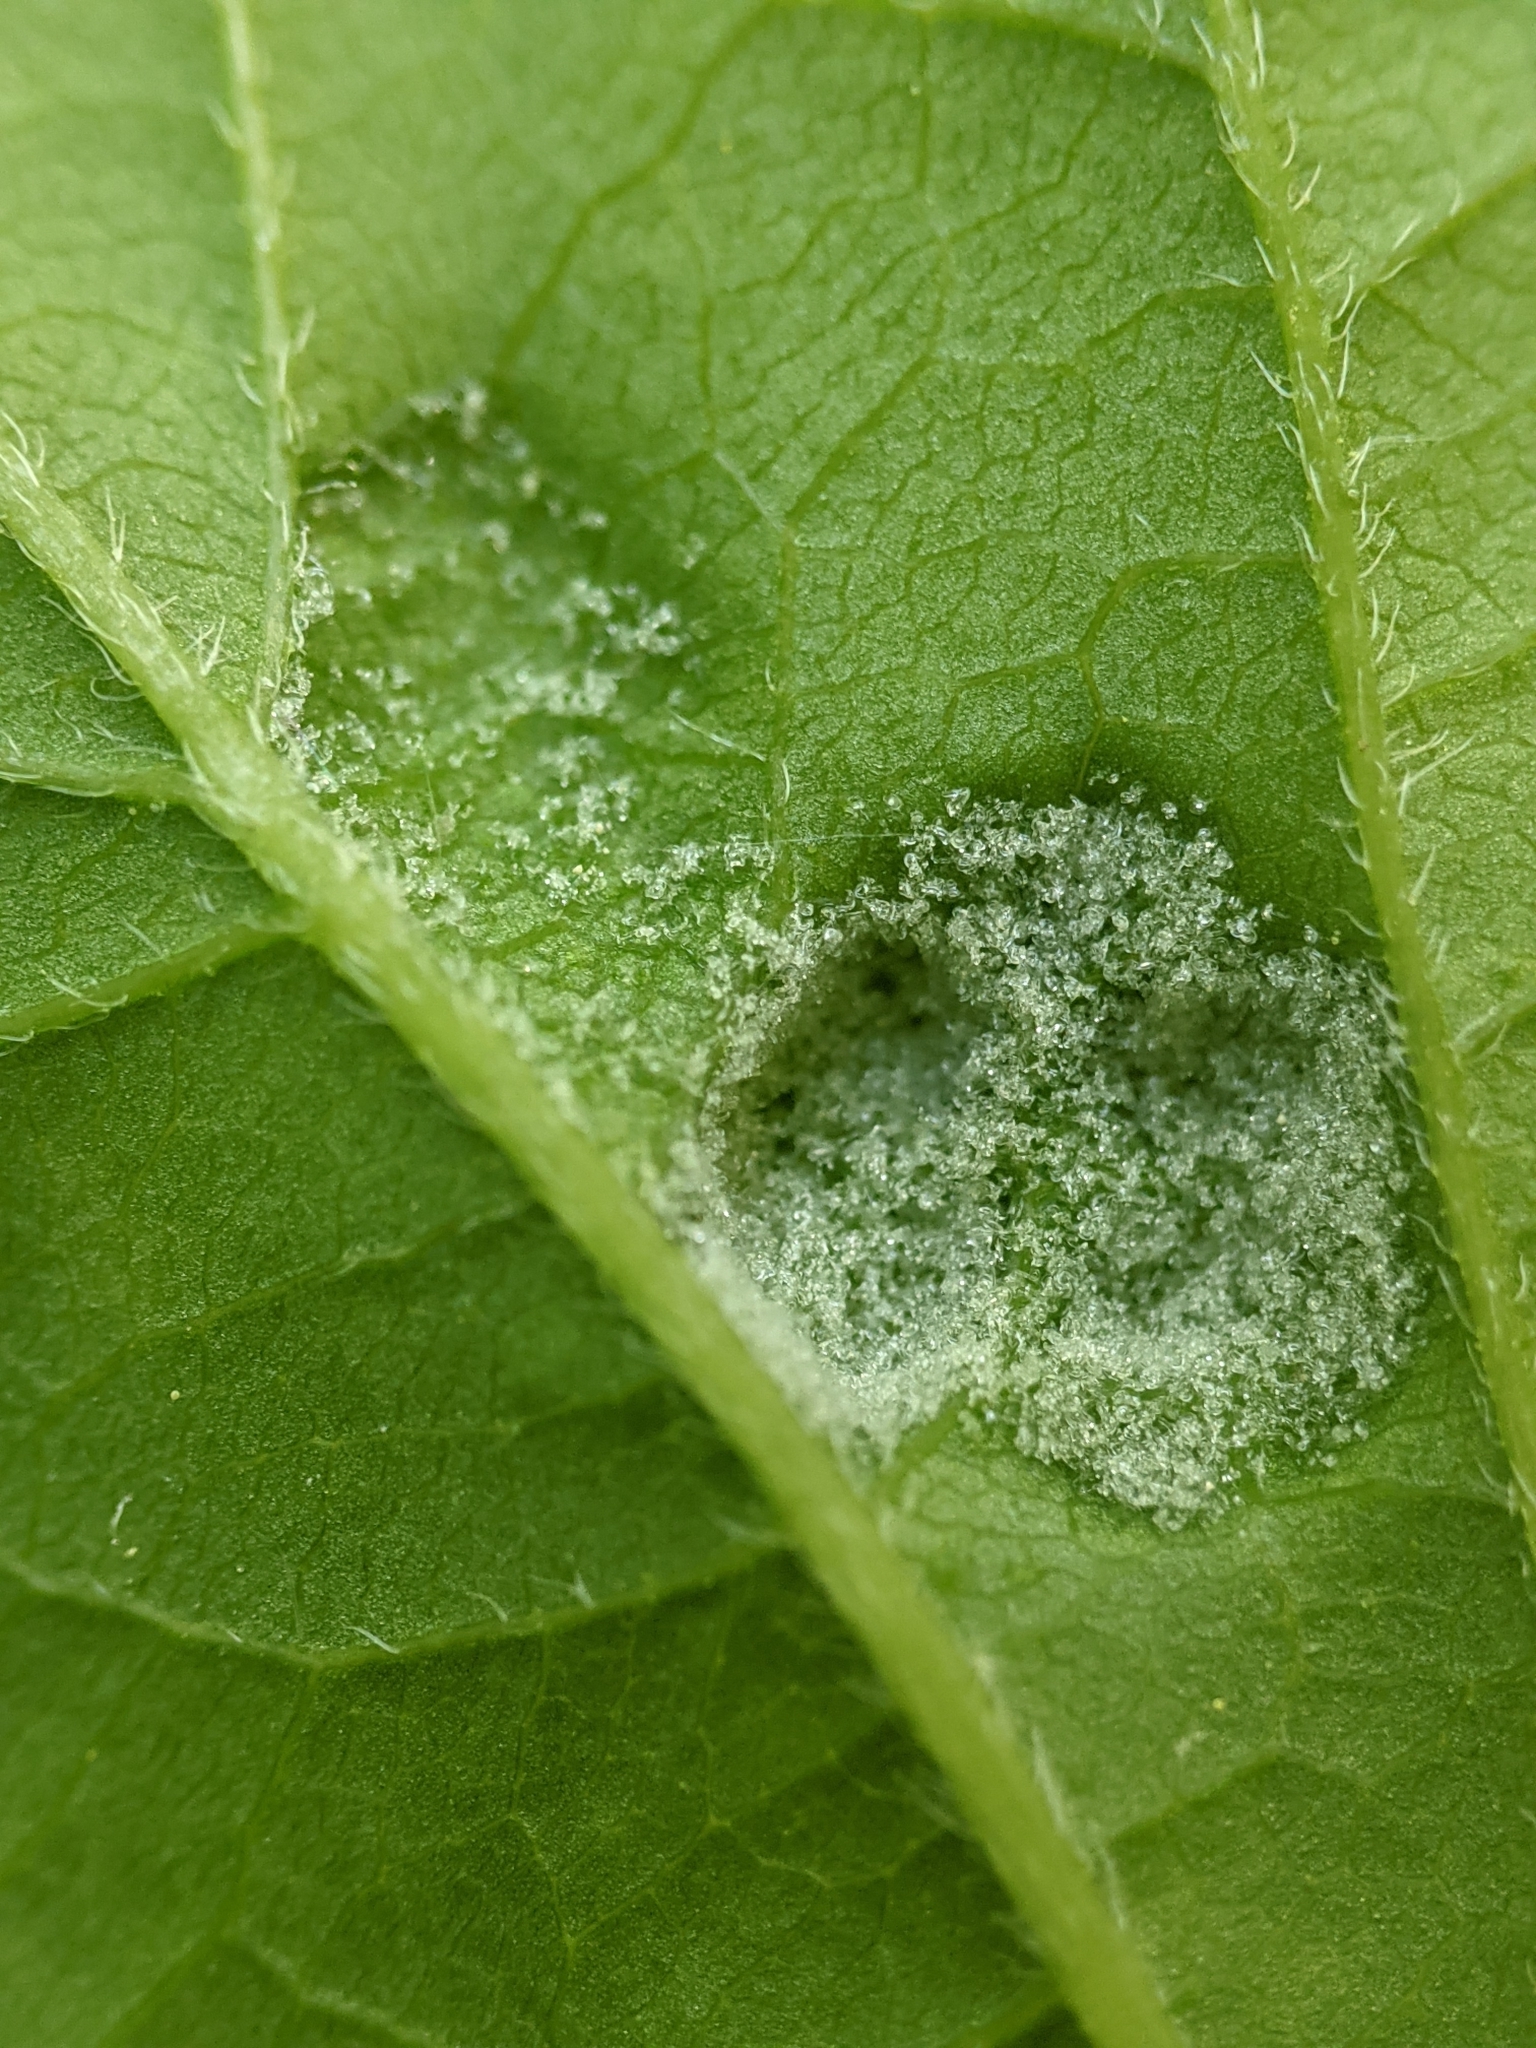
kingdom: Animalia
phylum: Arthropoda
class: Arachnida
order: Trombidiformes
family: Eriophyidae
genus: Aceria
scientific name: Aceria
